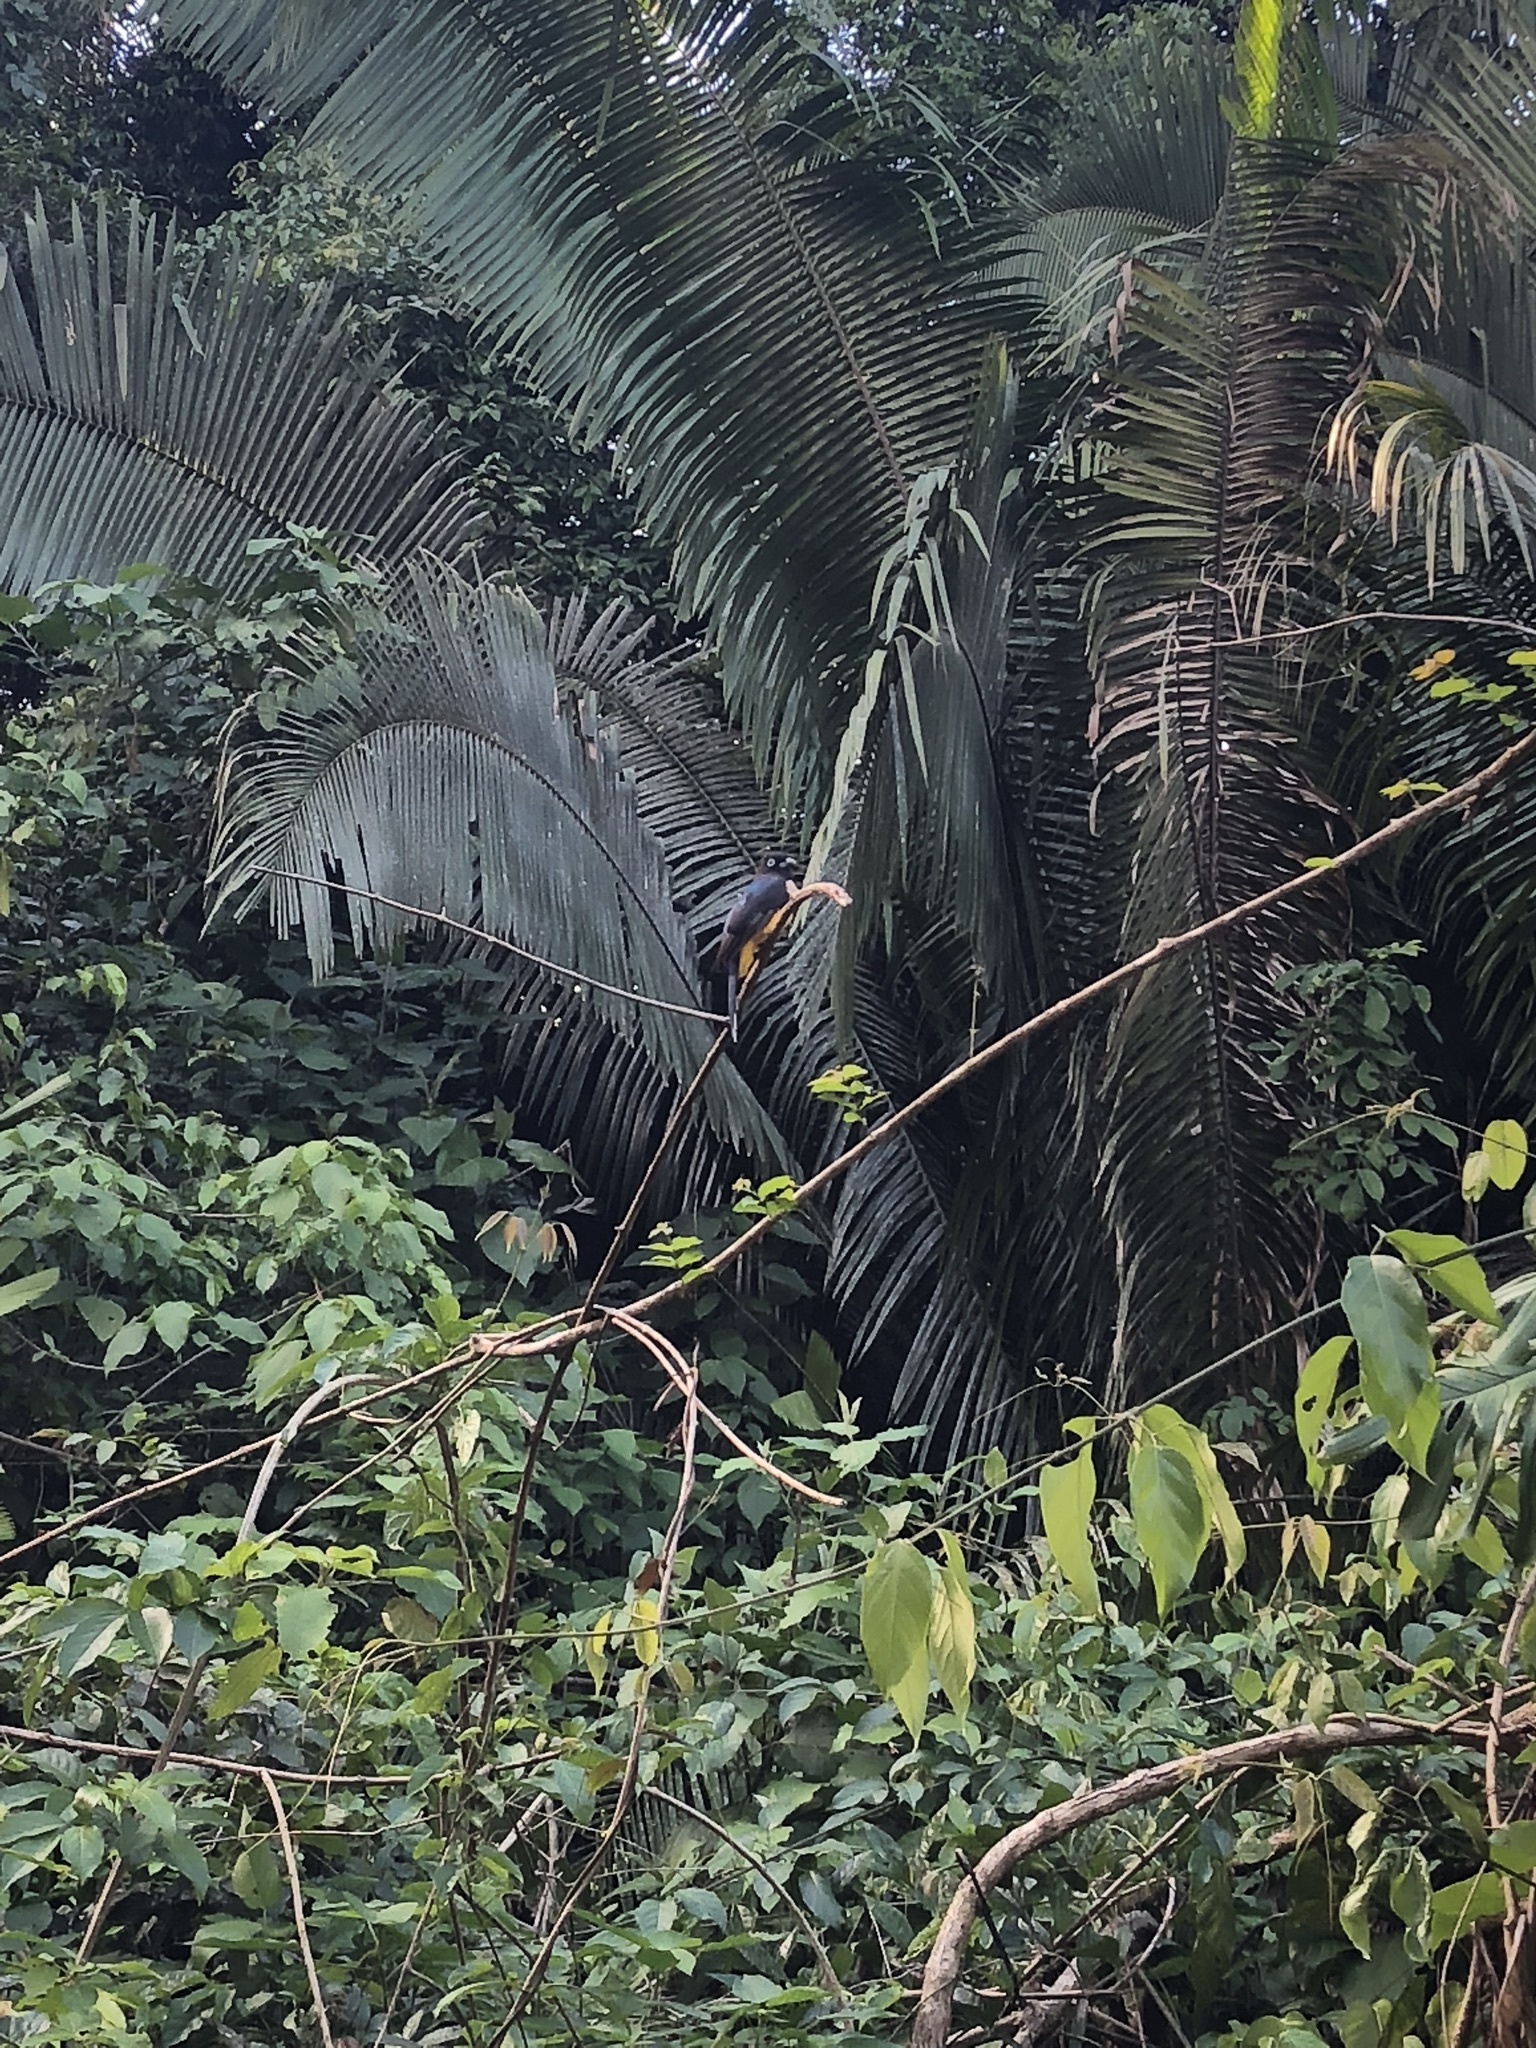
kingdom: Animalia
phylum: Chordata
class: Aves
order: Trogoniformes
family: Trogonidae
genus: Trogon
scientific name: Trogon melanocephalus
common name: Black-headed trogon
